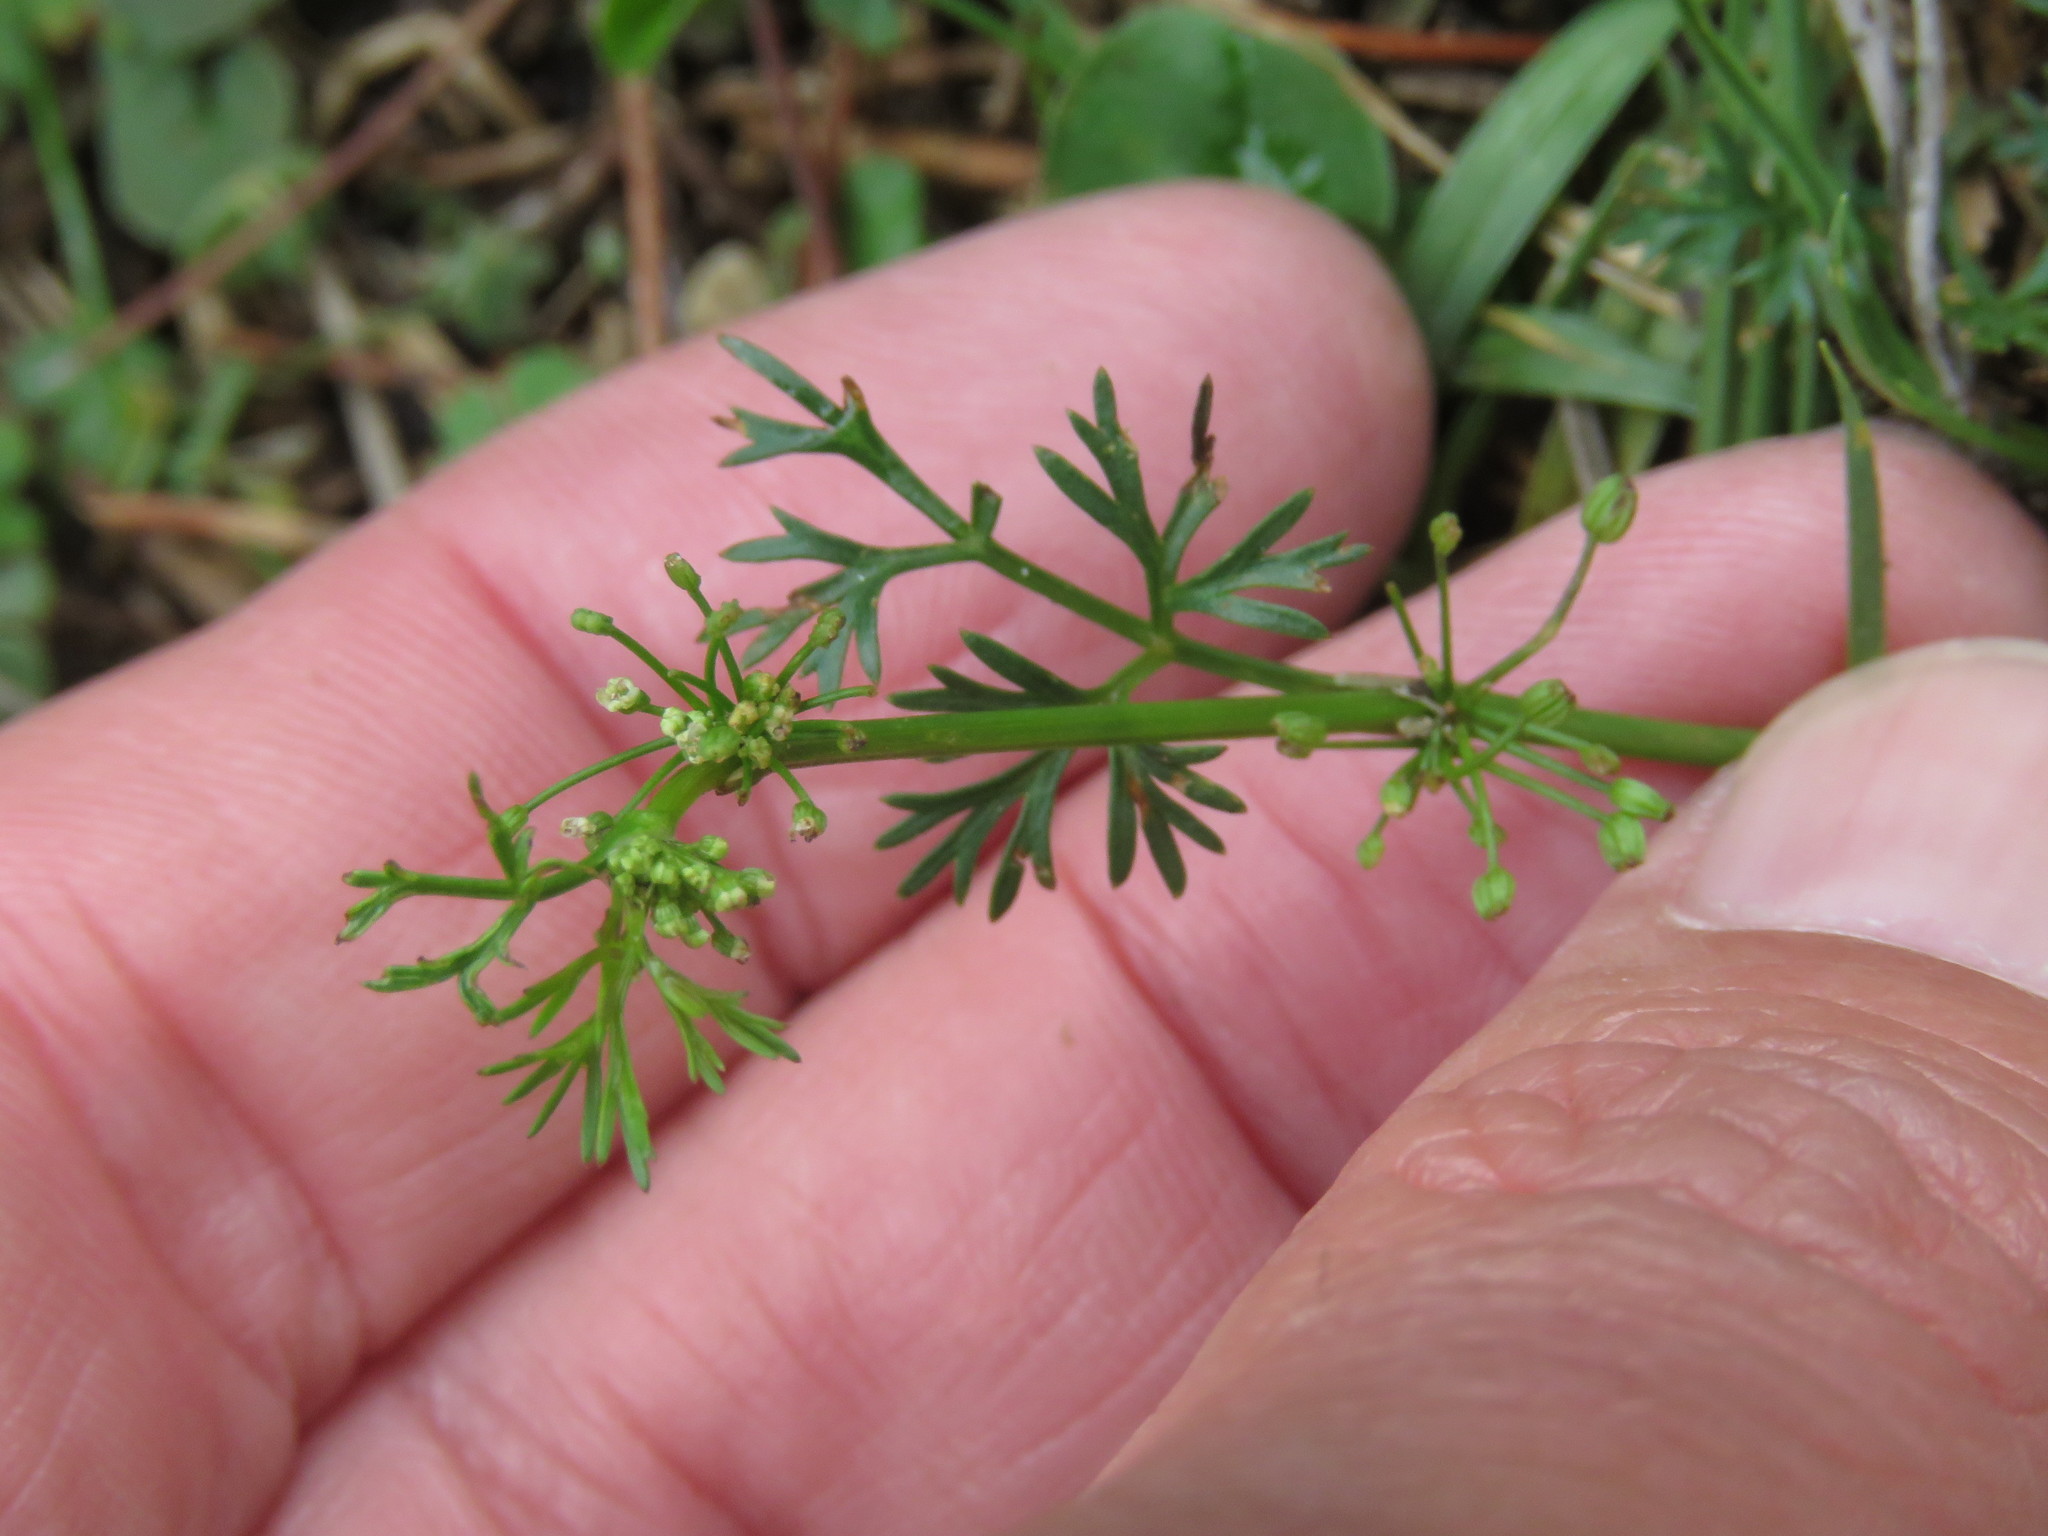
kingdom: Plantae
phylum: Tracheophyta
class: Magnoliopsida
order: Apiales
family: Apiaceae
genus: Cyclospermum
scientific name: Cyclospermum leptophyllum
